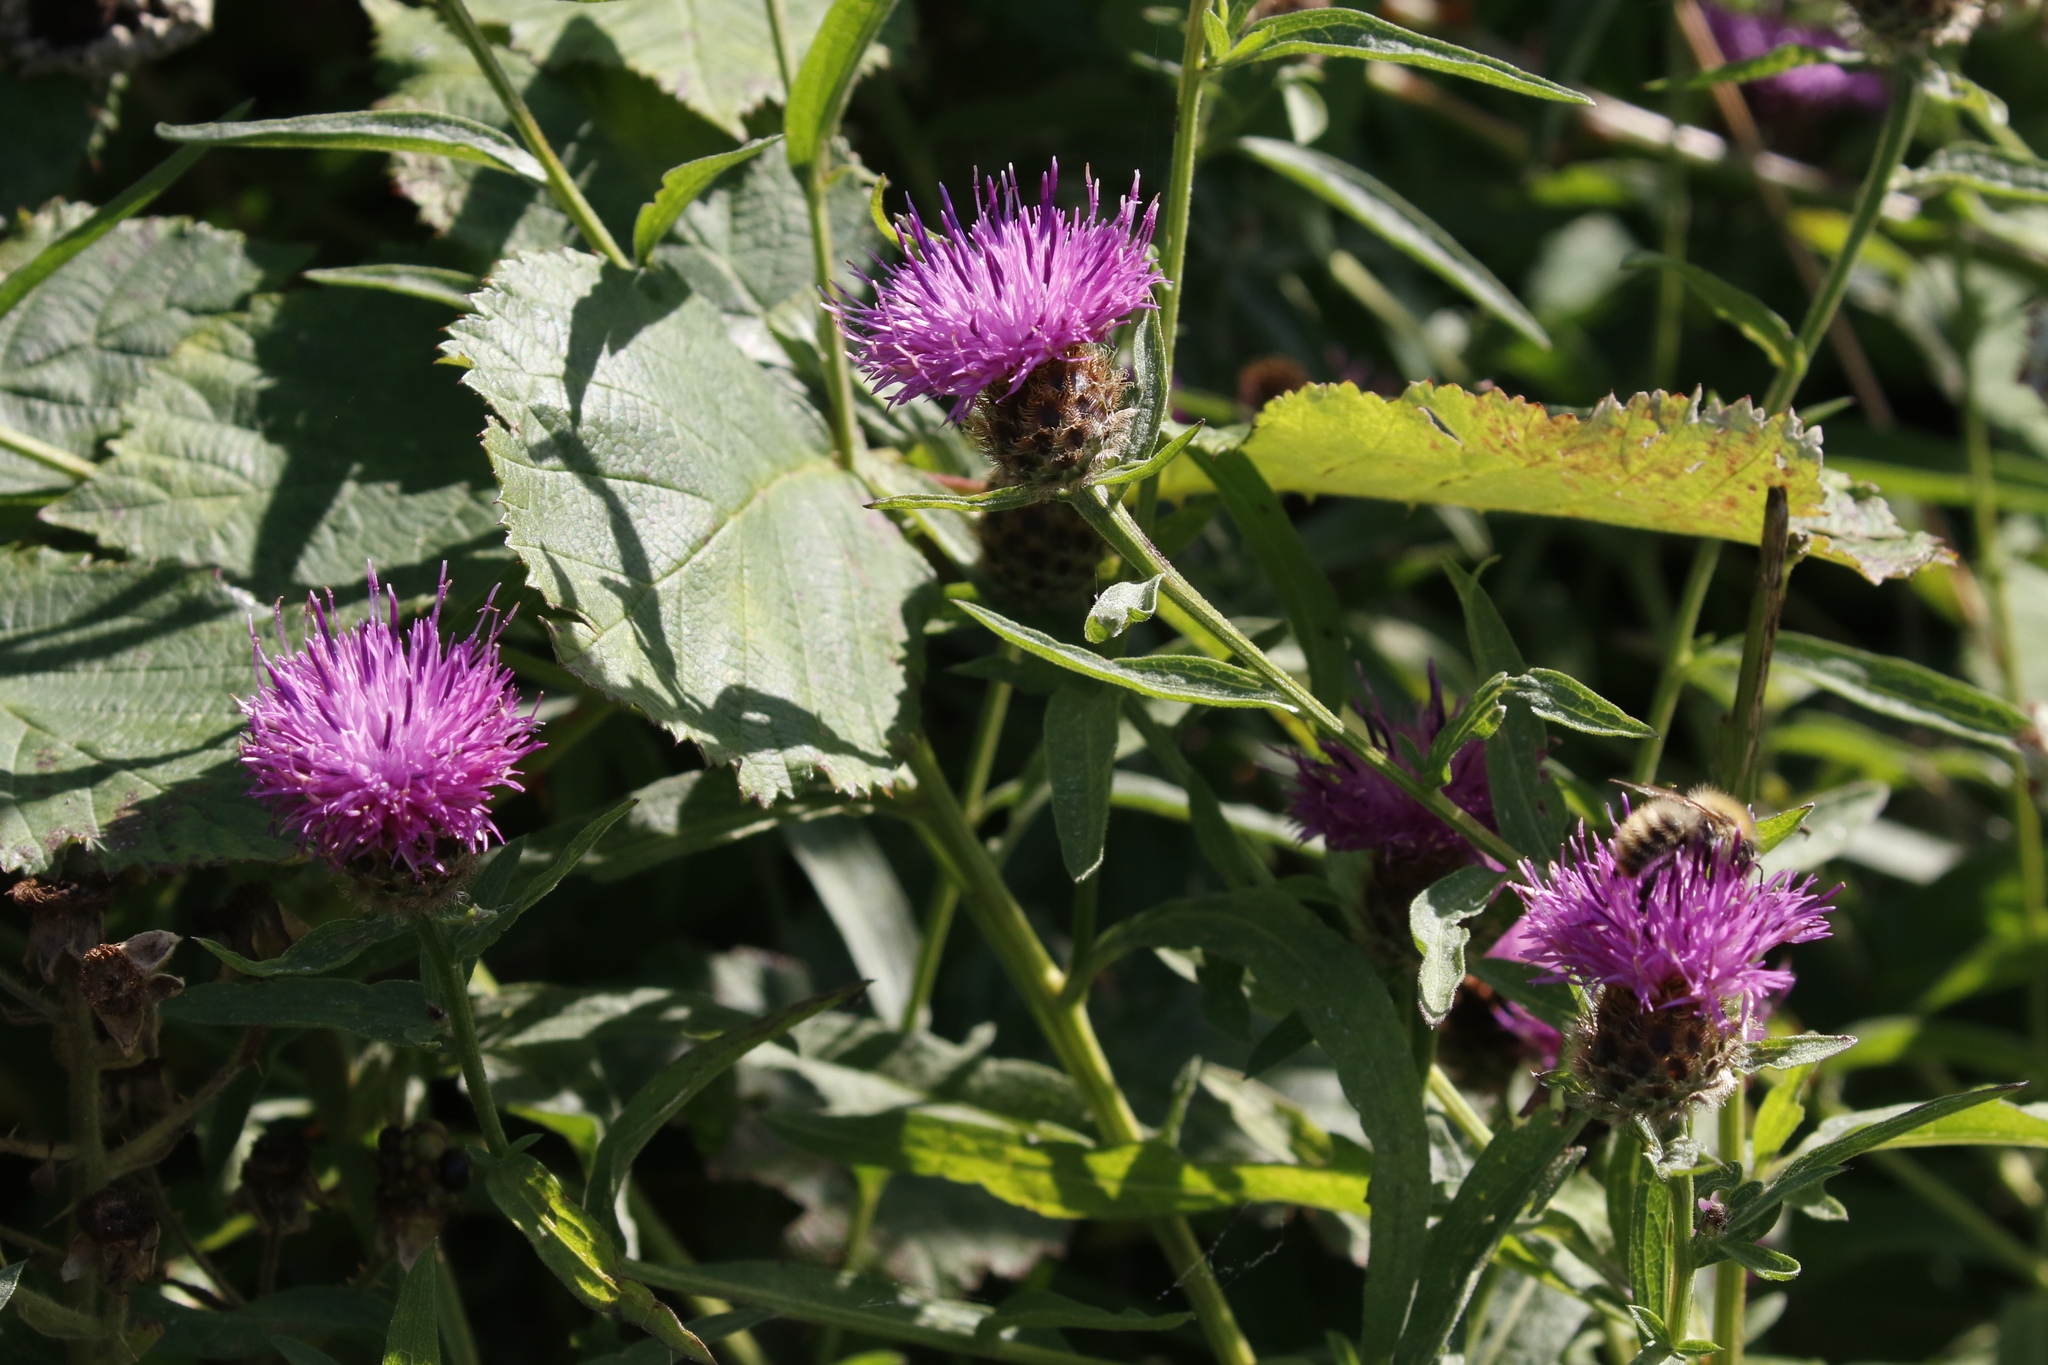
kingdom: Plantae
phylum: Tracheophyta
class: Magnoliopsida
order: Asterales
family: Asteraceae
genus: Centaurea
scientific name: Centaurea nigra
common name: Lesser knapweed
